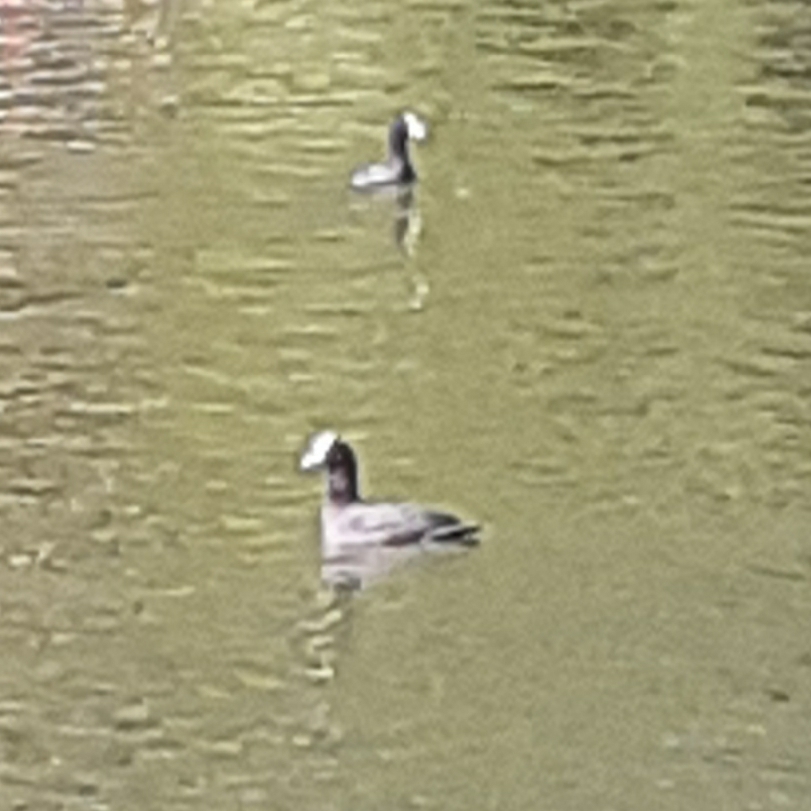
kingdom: Animalia
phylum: Chordata
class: Aves
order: Gruiformes
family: Rallidae
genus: Fulica
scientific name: Fulica atra
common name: Eurasian coot
